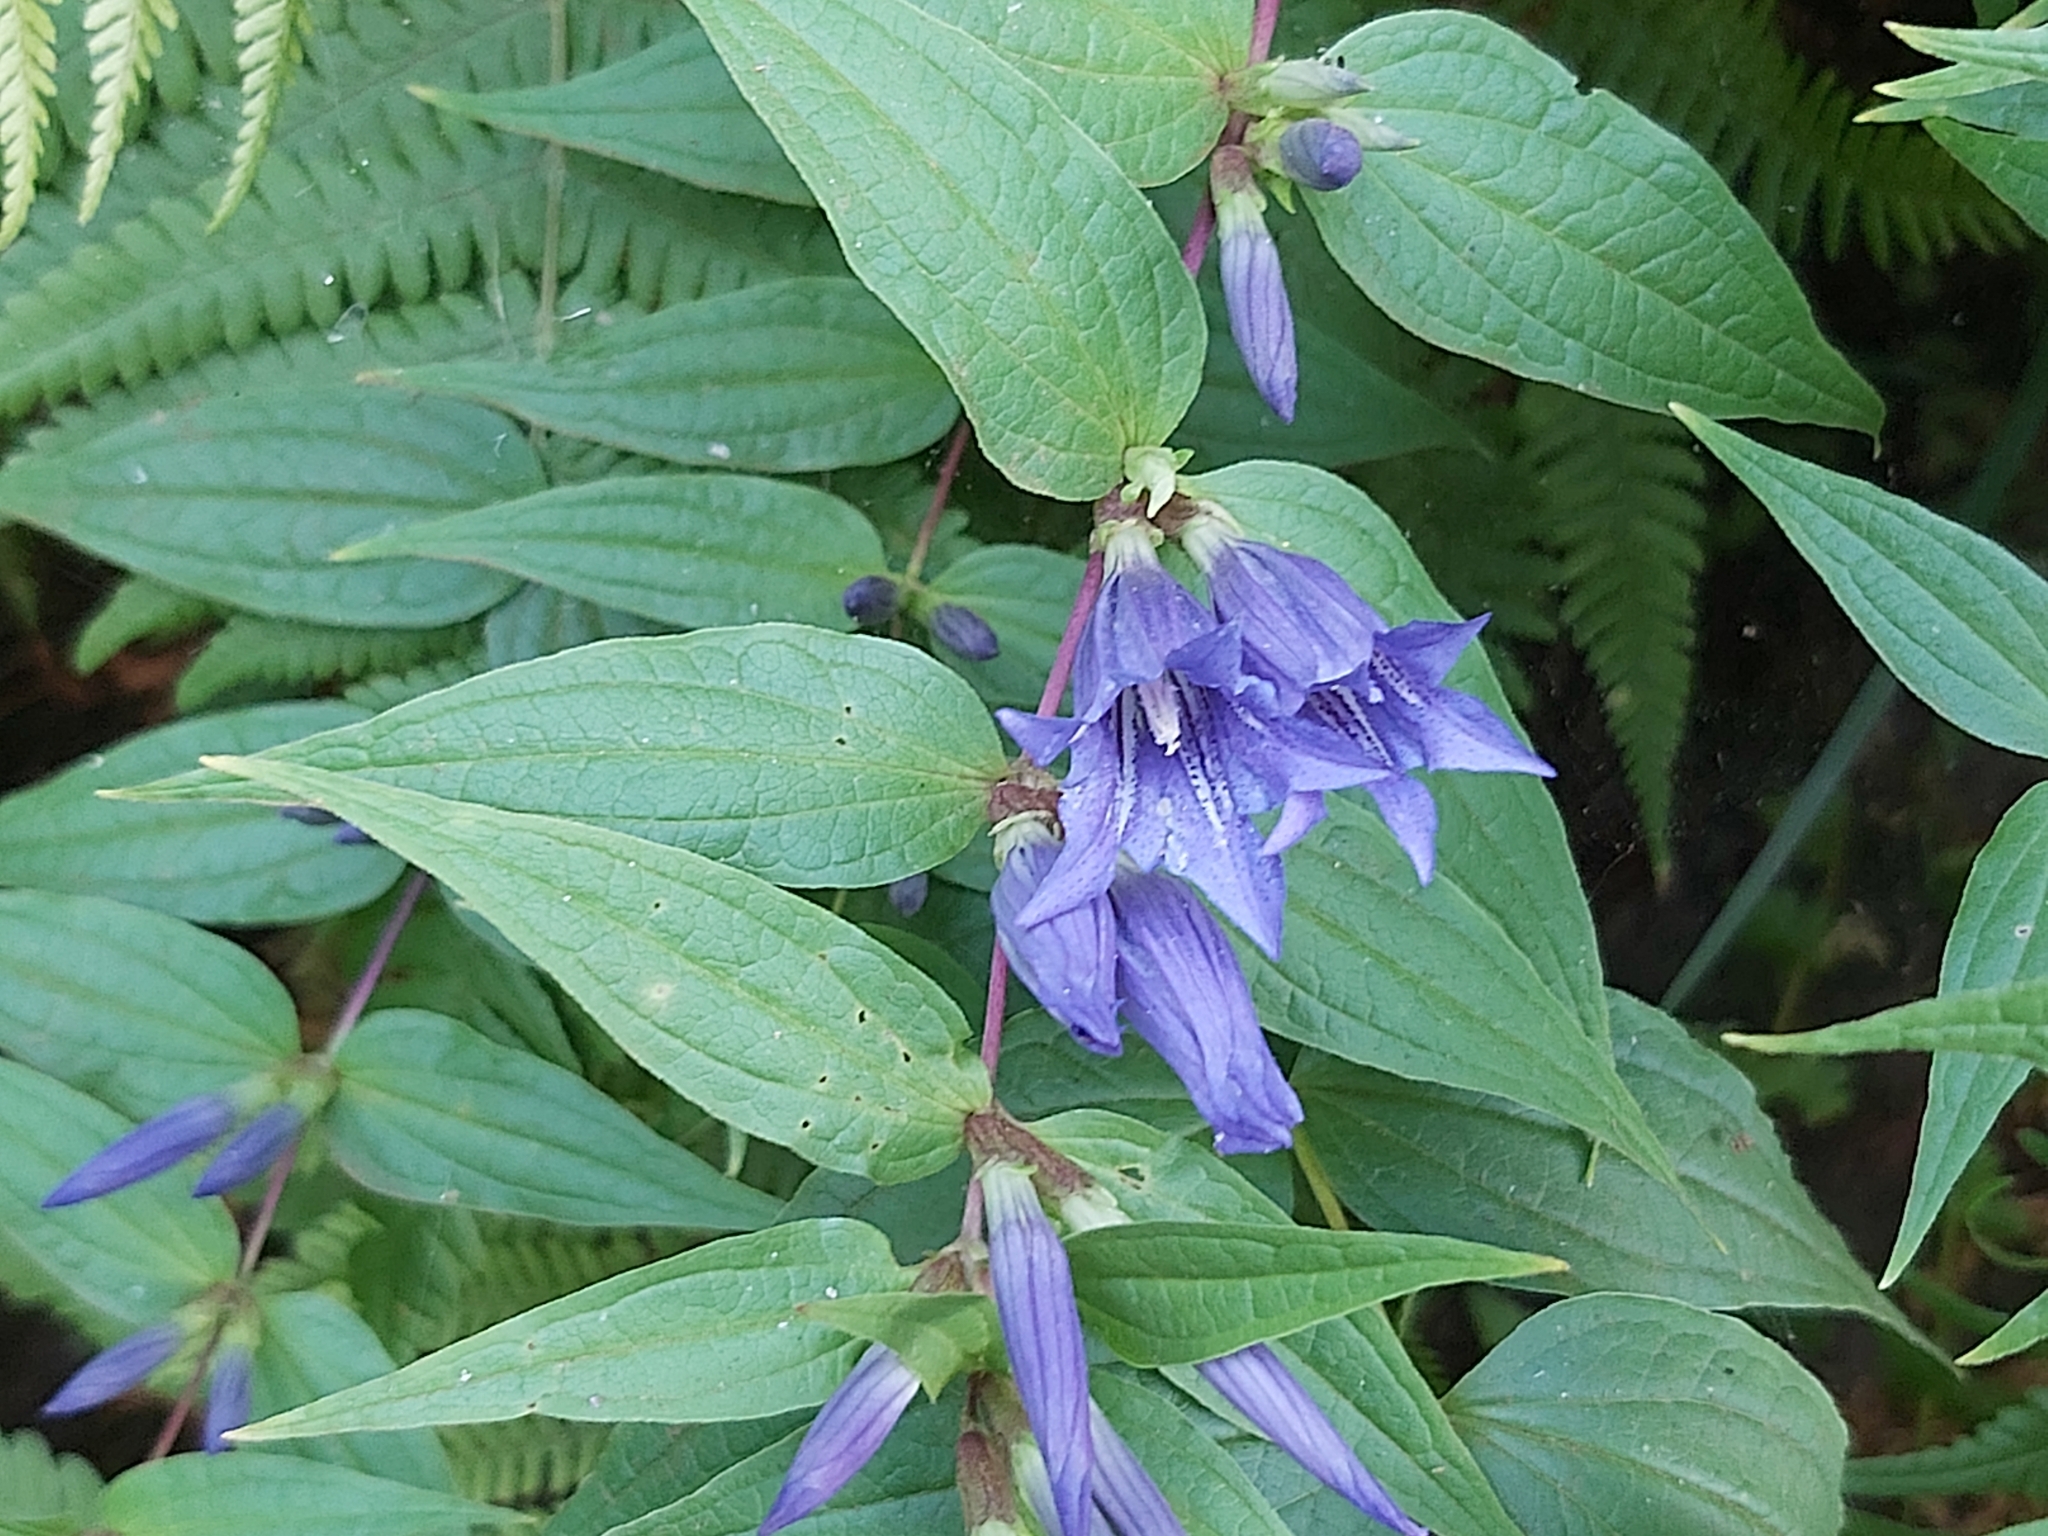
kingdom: Plantae
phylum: Tracheophyta
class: Magnoliopsida
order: Gentianales
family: Gentianaceae
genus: Gentiana
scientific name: Gentiana asclepiadea
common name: Willow gentian
